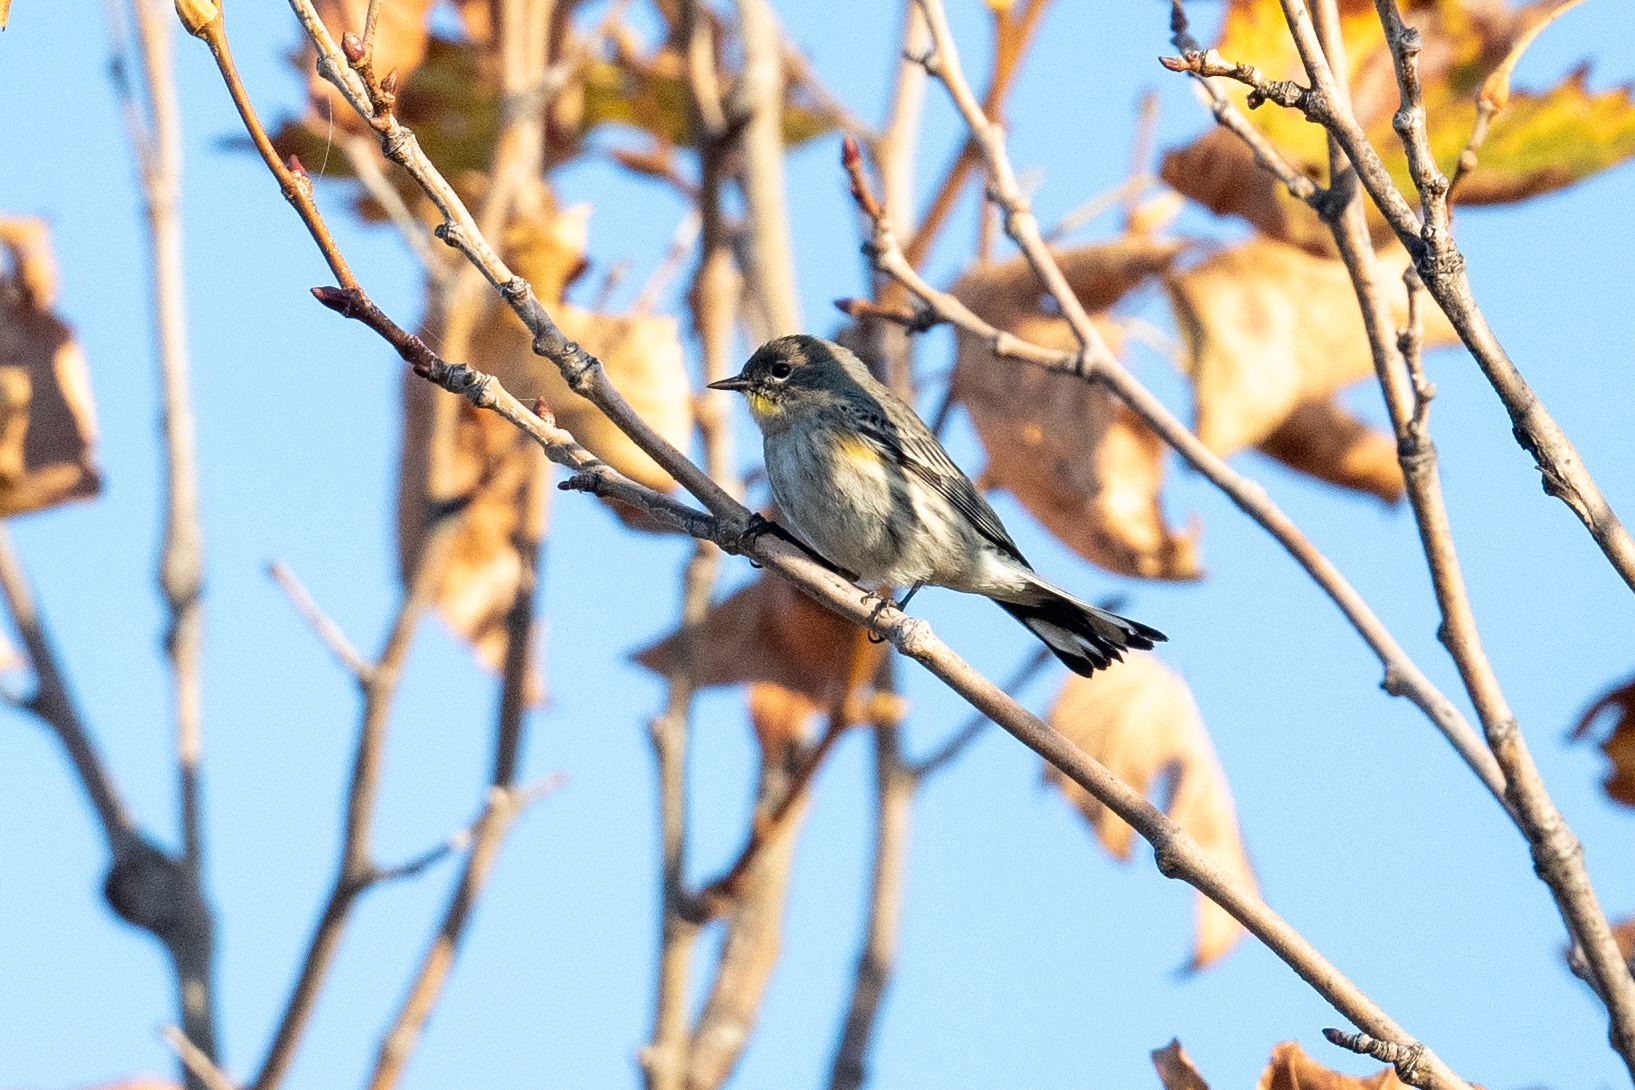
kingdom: Animalia
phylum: Chordata
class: Aves
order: Passeriformes
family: Parulidae
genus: Setophaga
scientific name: Setophaga coronata
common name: Myrtle warbler
